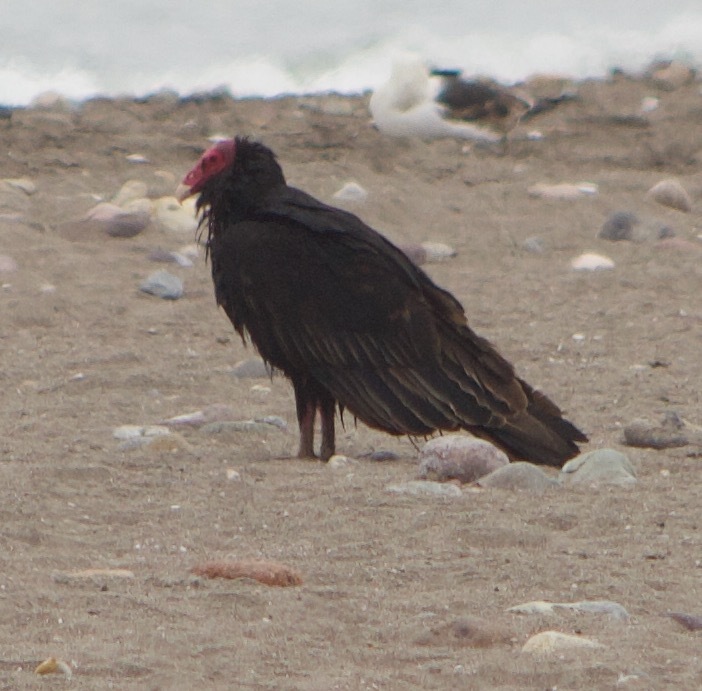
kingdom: Animalia
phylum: Chordata
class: Aves
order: Accipitriformes
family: Cathartidae
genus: Cathartes
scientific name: Cathartes aura
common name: Turkey vulture
